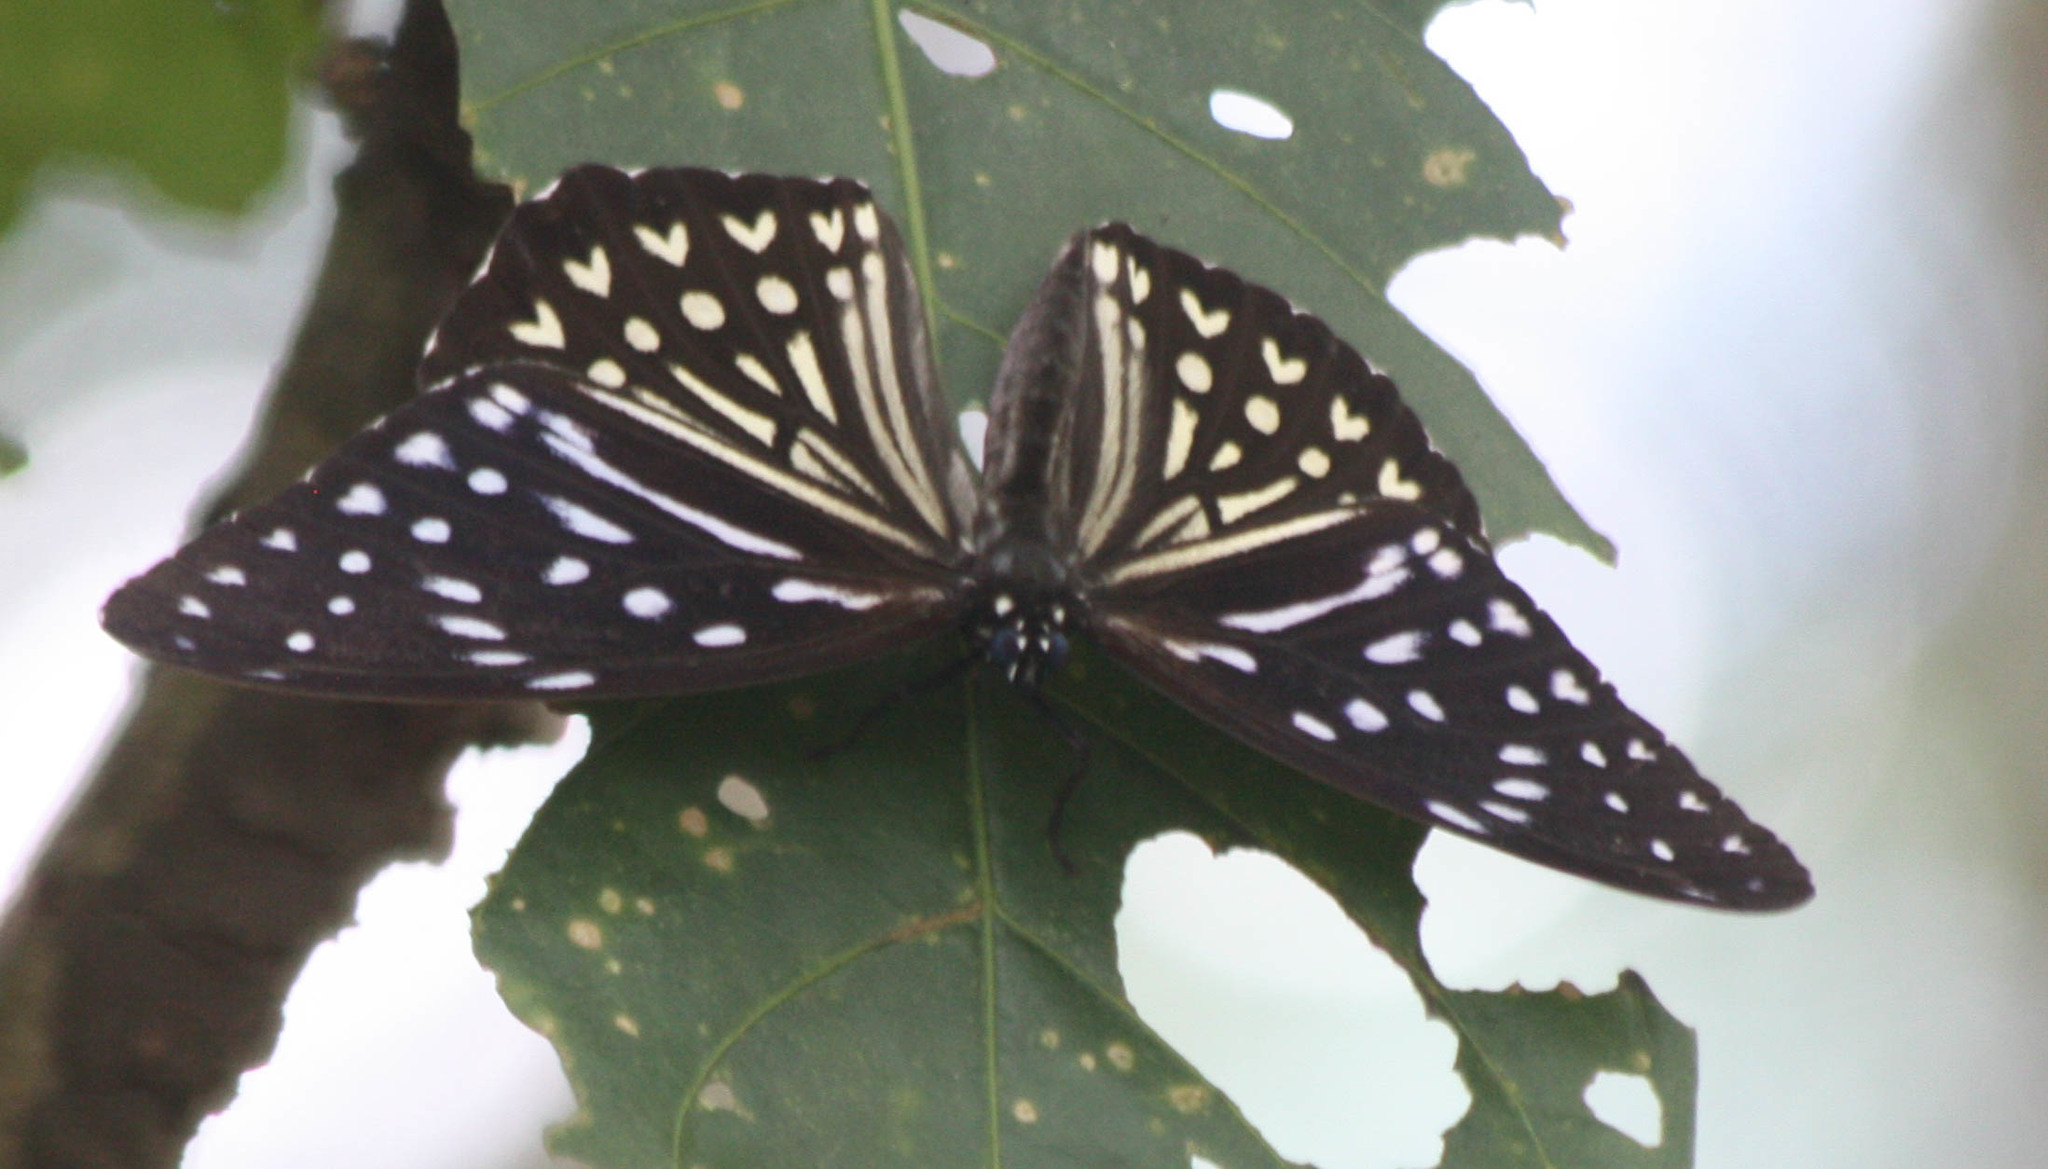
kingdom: Animalia
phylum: Arthropoda
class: Insecta
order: Lepidoptera
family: Nymphalidae
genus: Penthema
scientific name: Penthema darlisa
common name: Three-coloured kaiser
